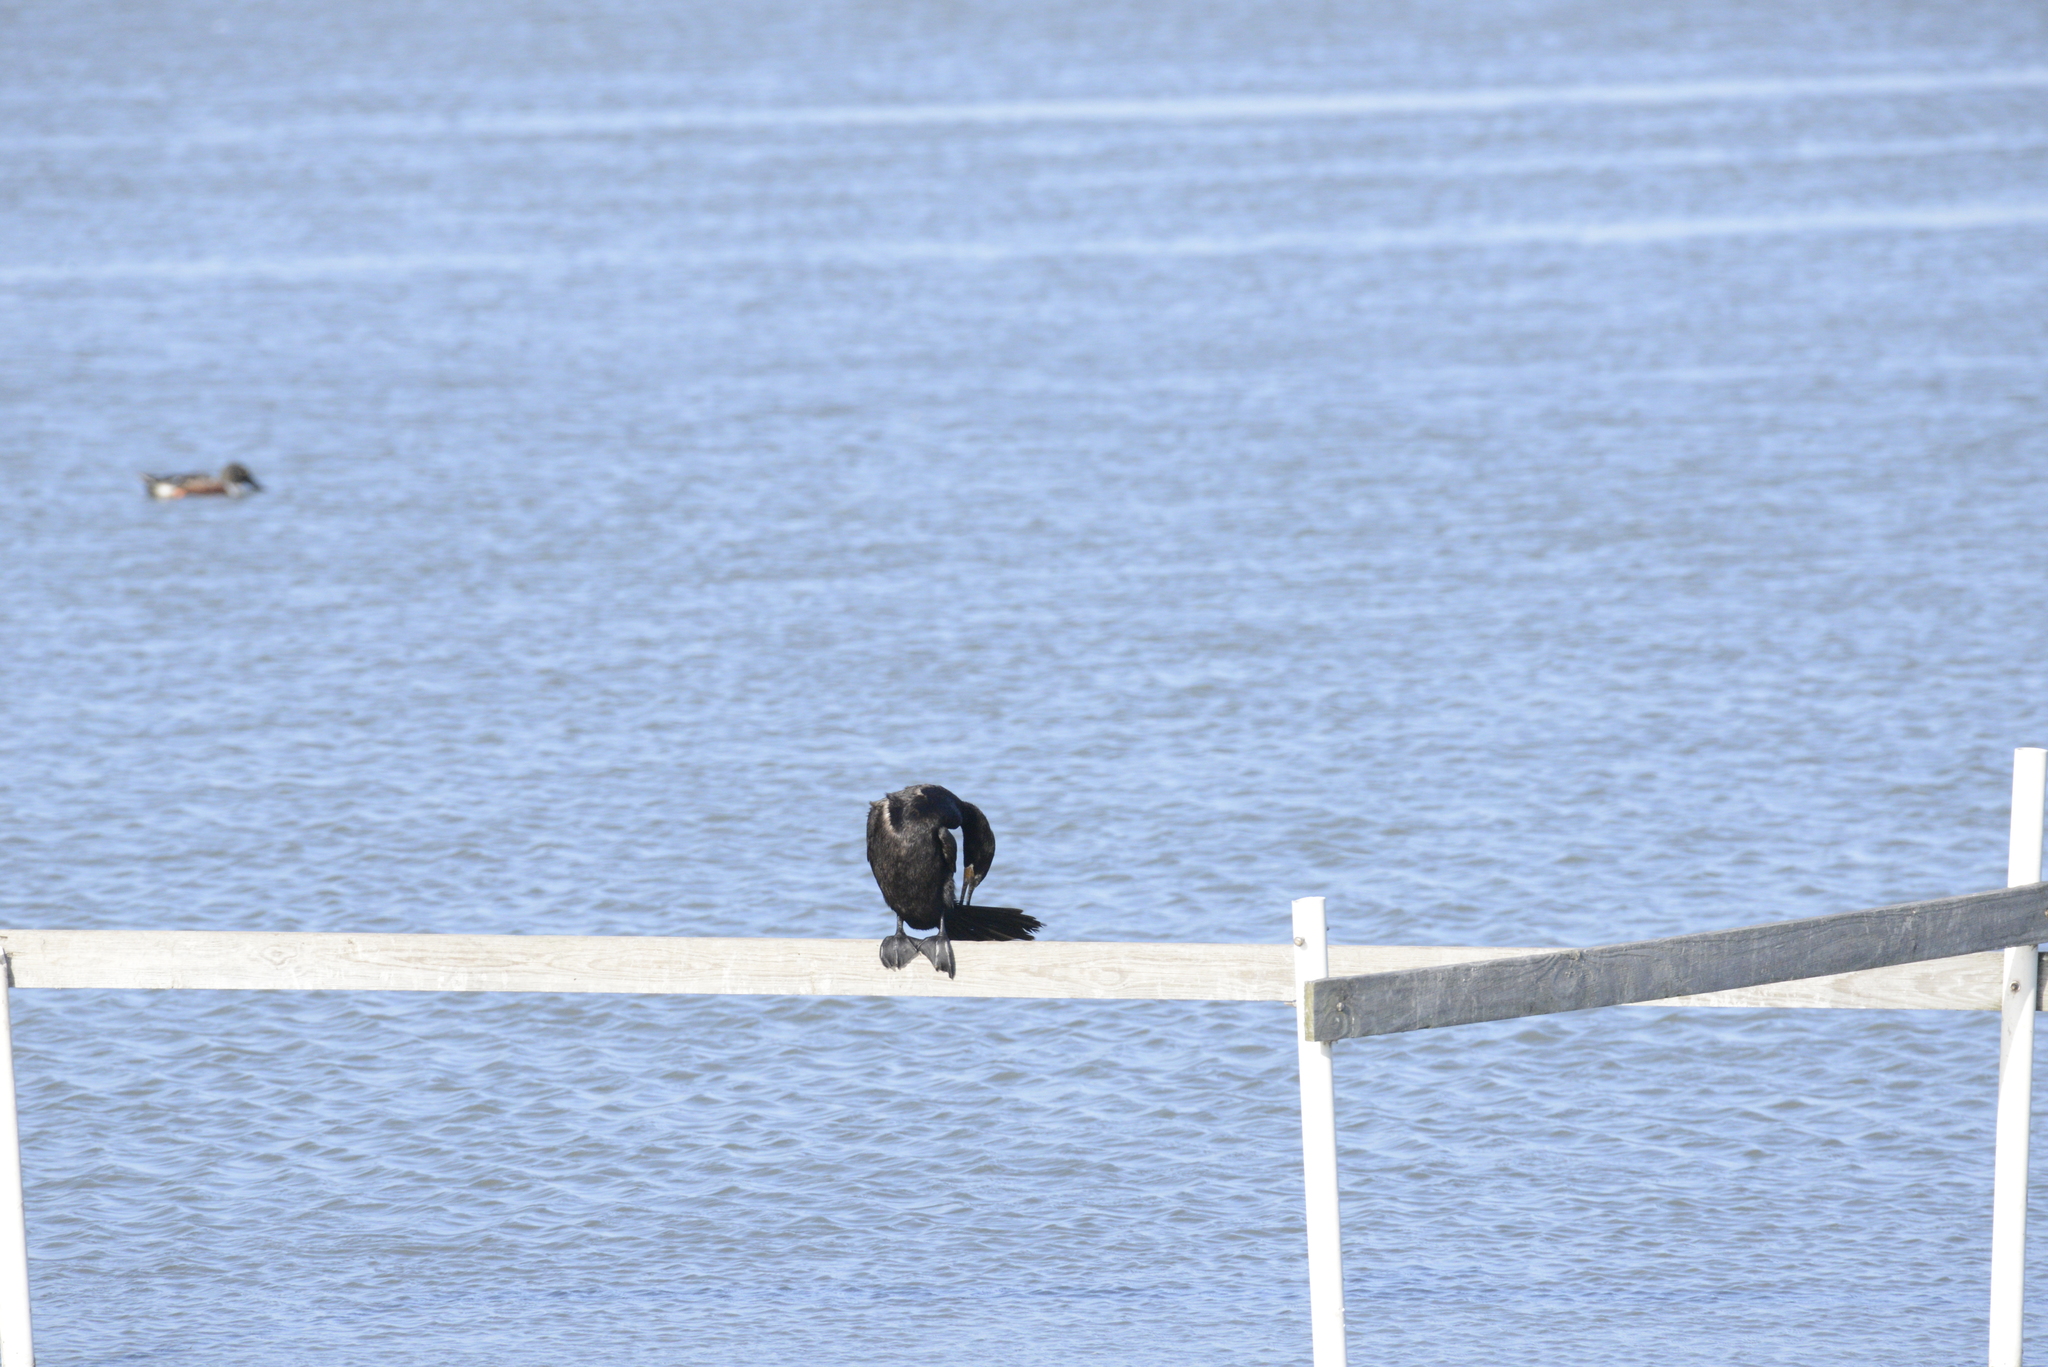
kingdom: Animalia
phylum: Chordata
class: Aves
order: Suliformes
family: Phalacrocoracidae
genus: Phalacrocorax
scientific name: Phalacrocorax brasilianus
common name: Neotropic cormorant
